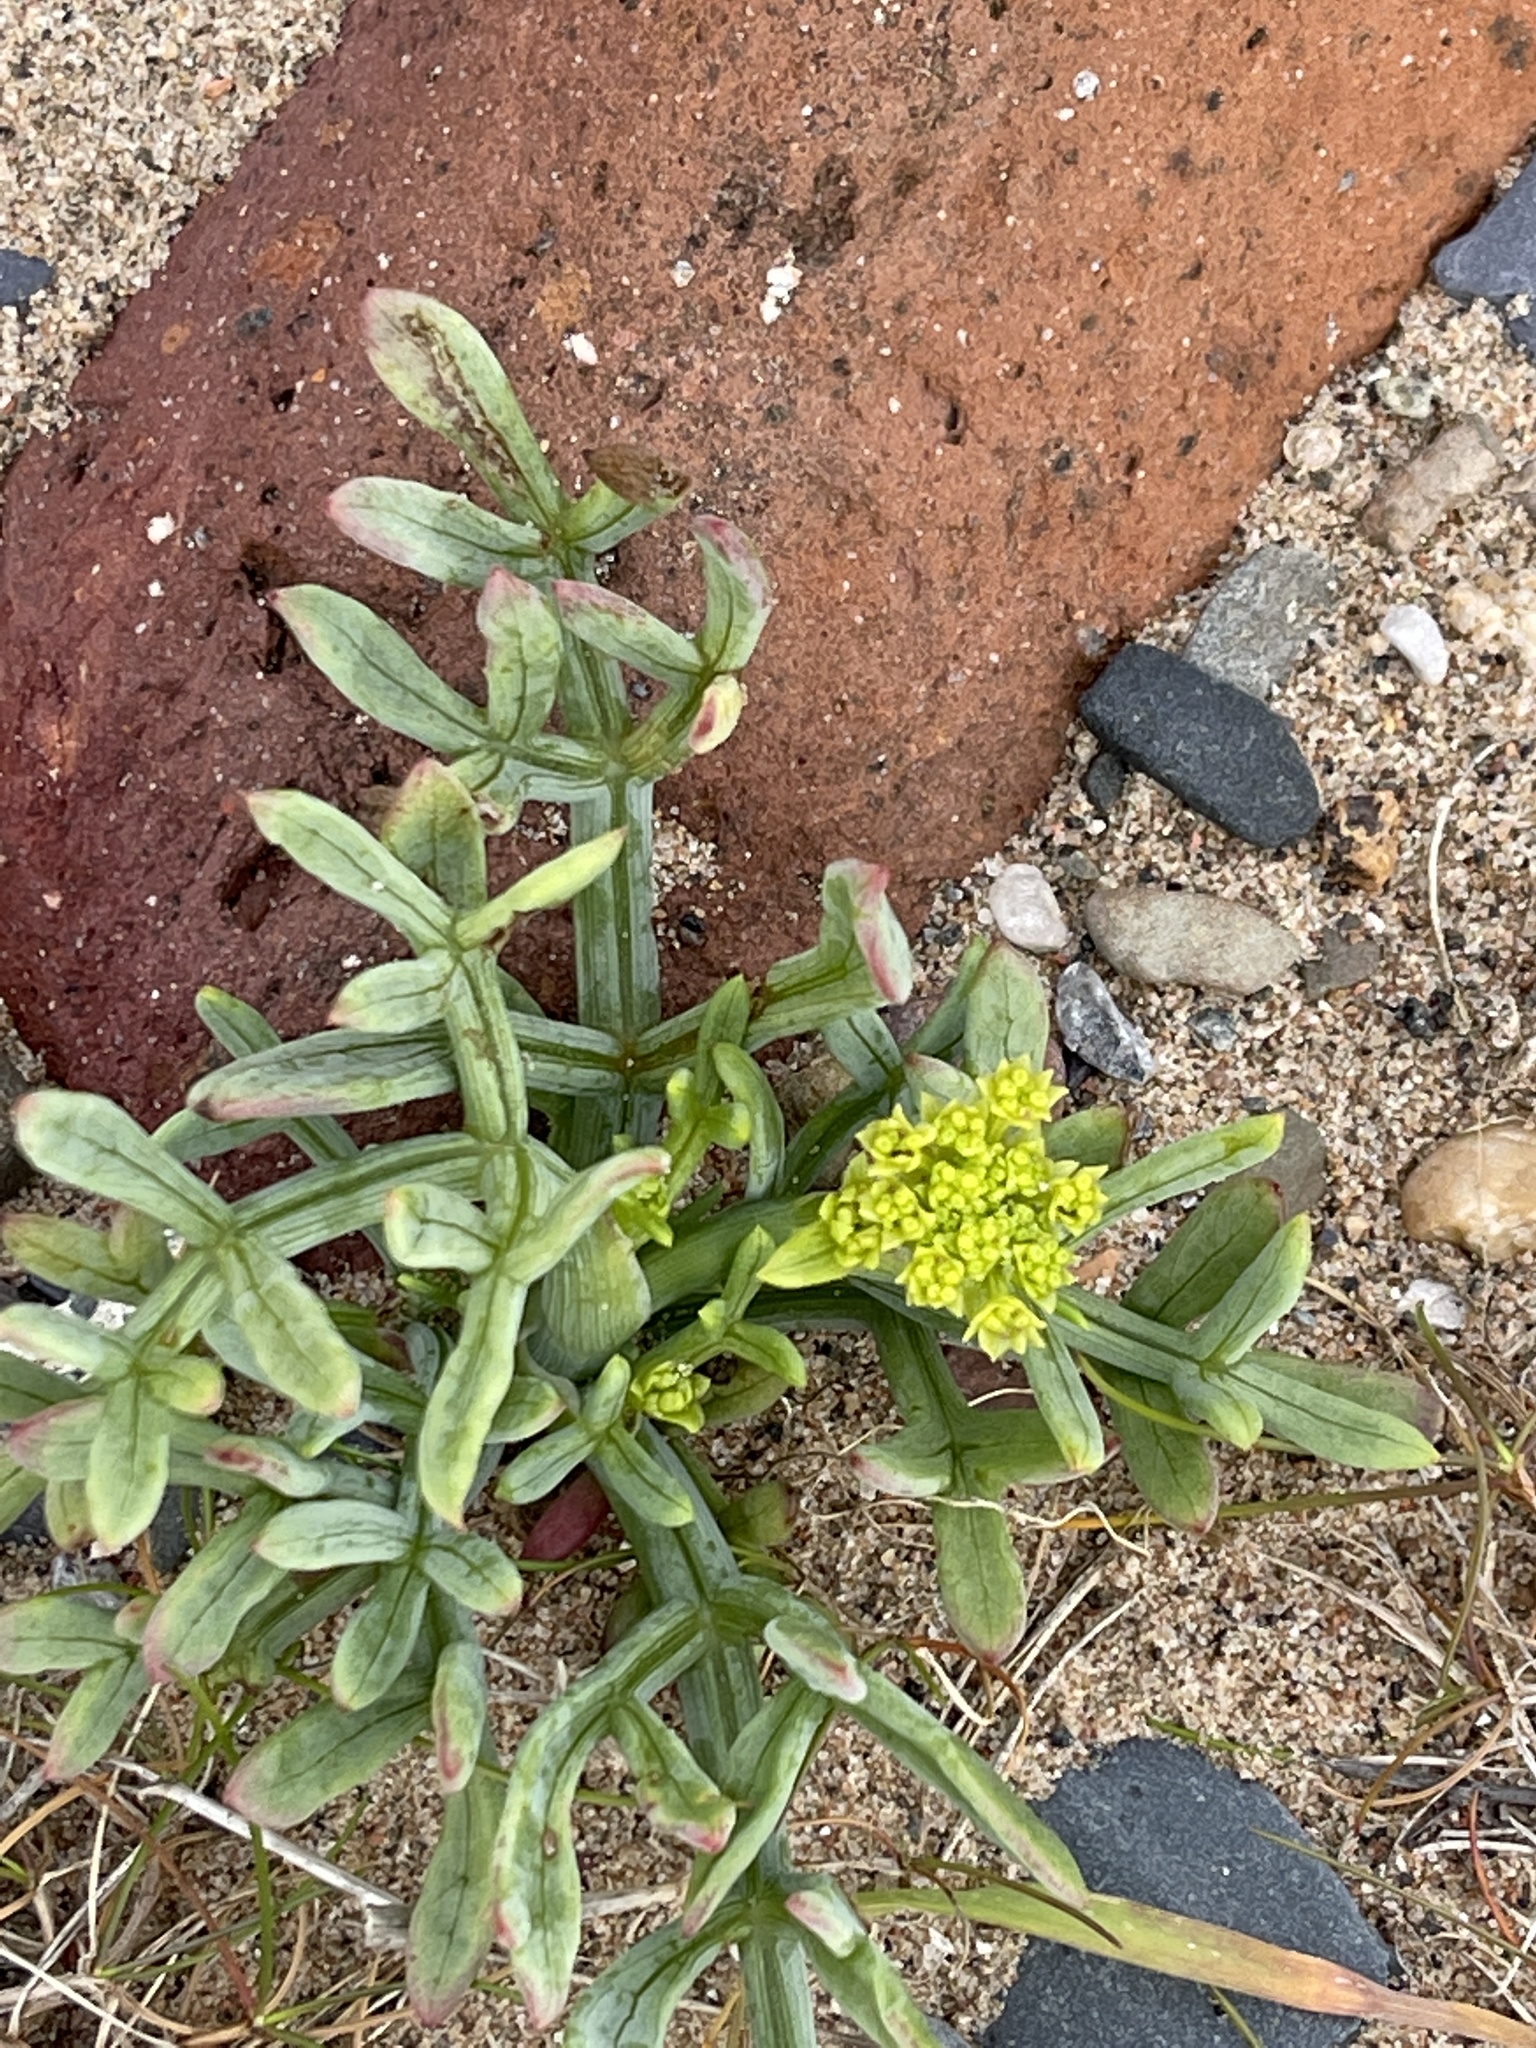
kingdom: Plantae
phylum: Tracheophyta
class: Magnoliopsida
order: Apiales
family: Apiaceae
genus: Crithmum
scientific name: Crithmum maritimum
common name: Rock samphire
